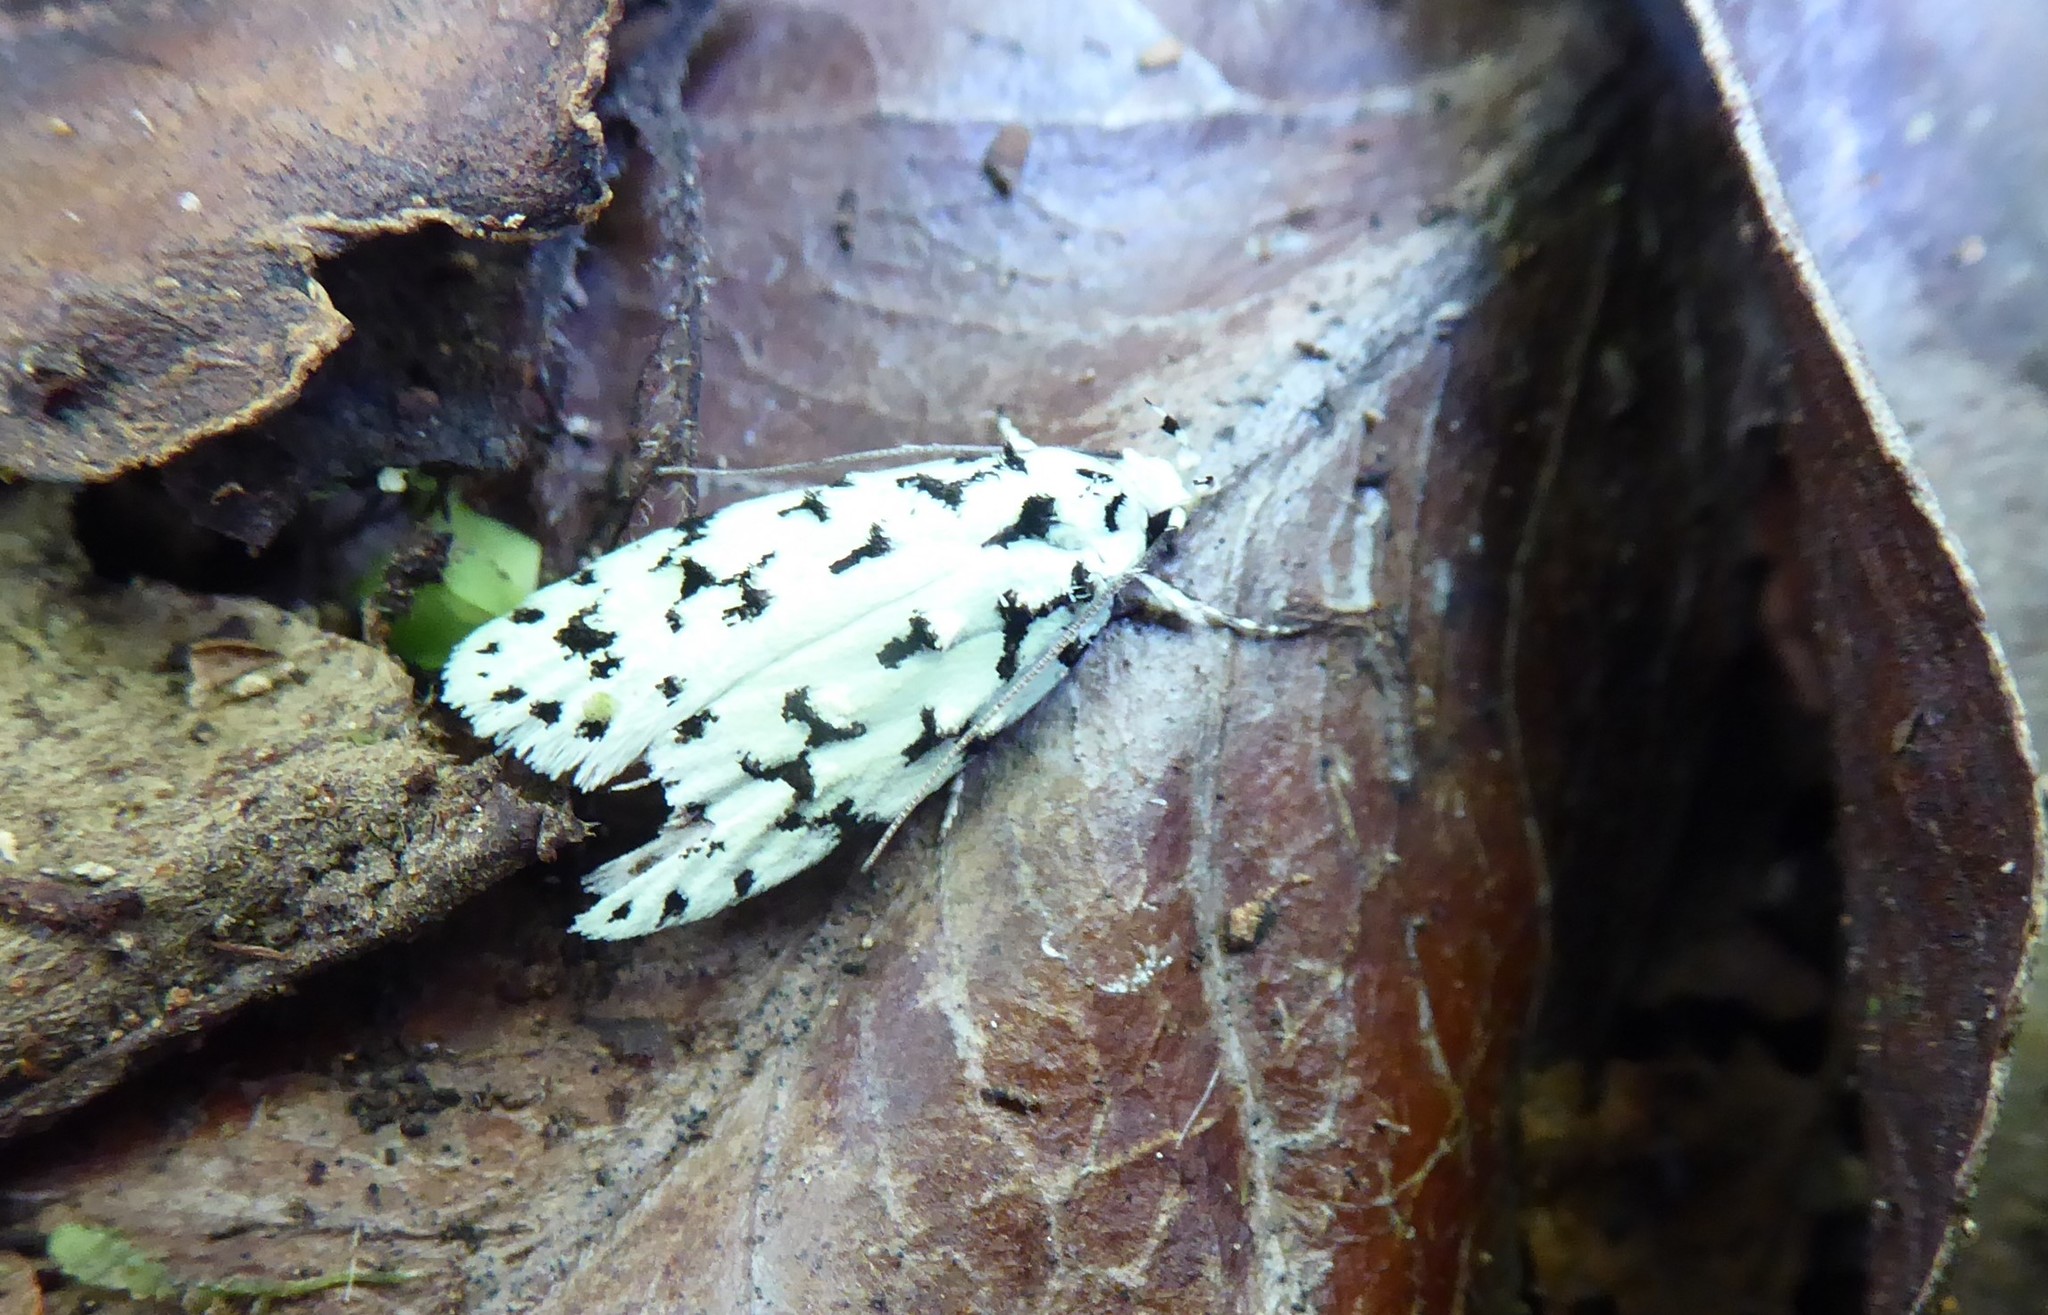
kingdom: Animalia
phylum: Arthropoda
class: Insecta
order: Lepidoptera
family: Oecophoridae
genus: Izatha
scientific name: Izatha huttoni
